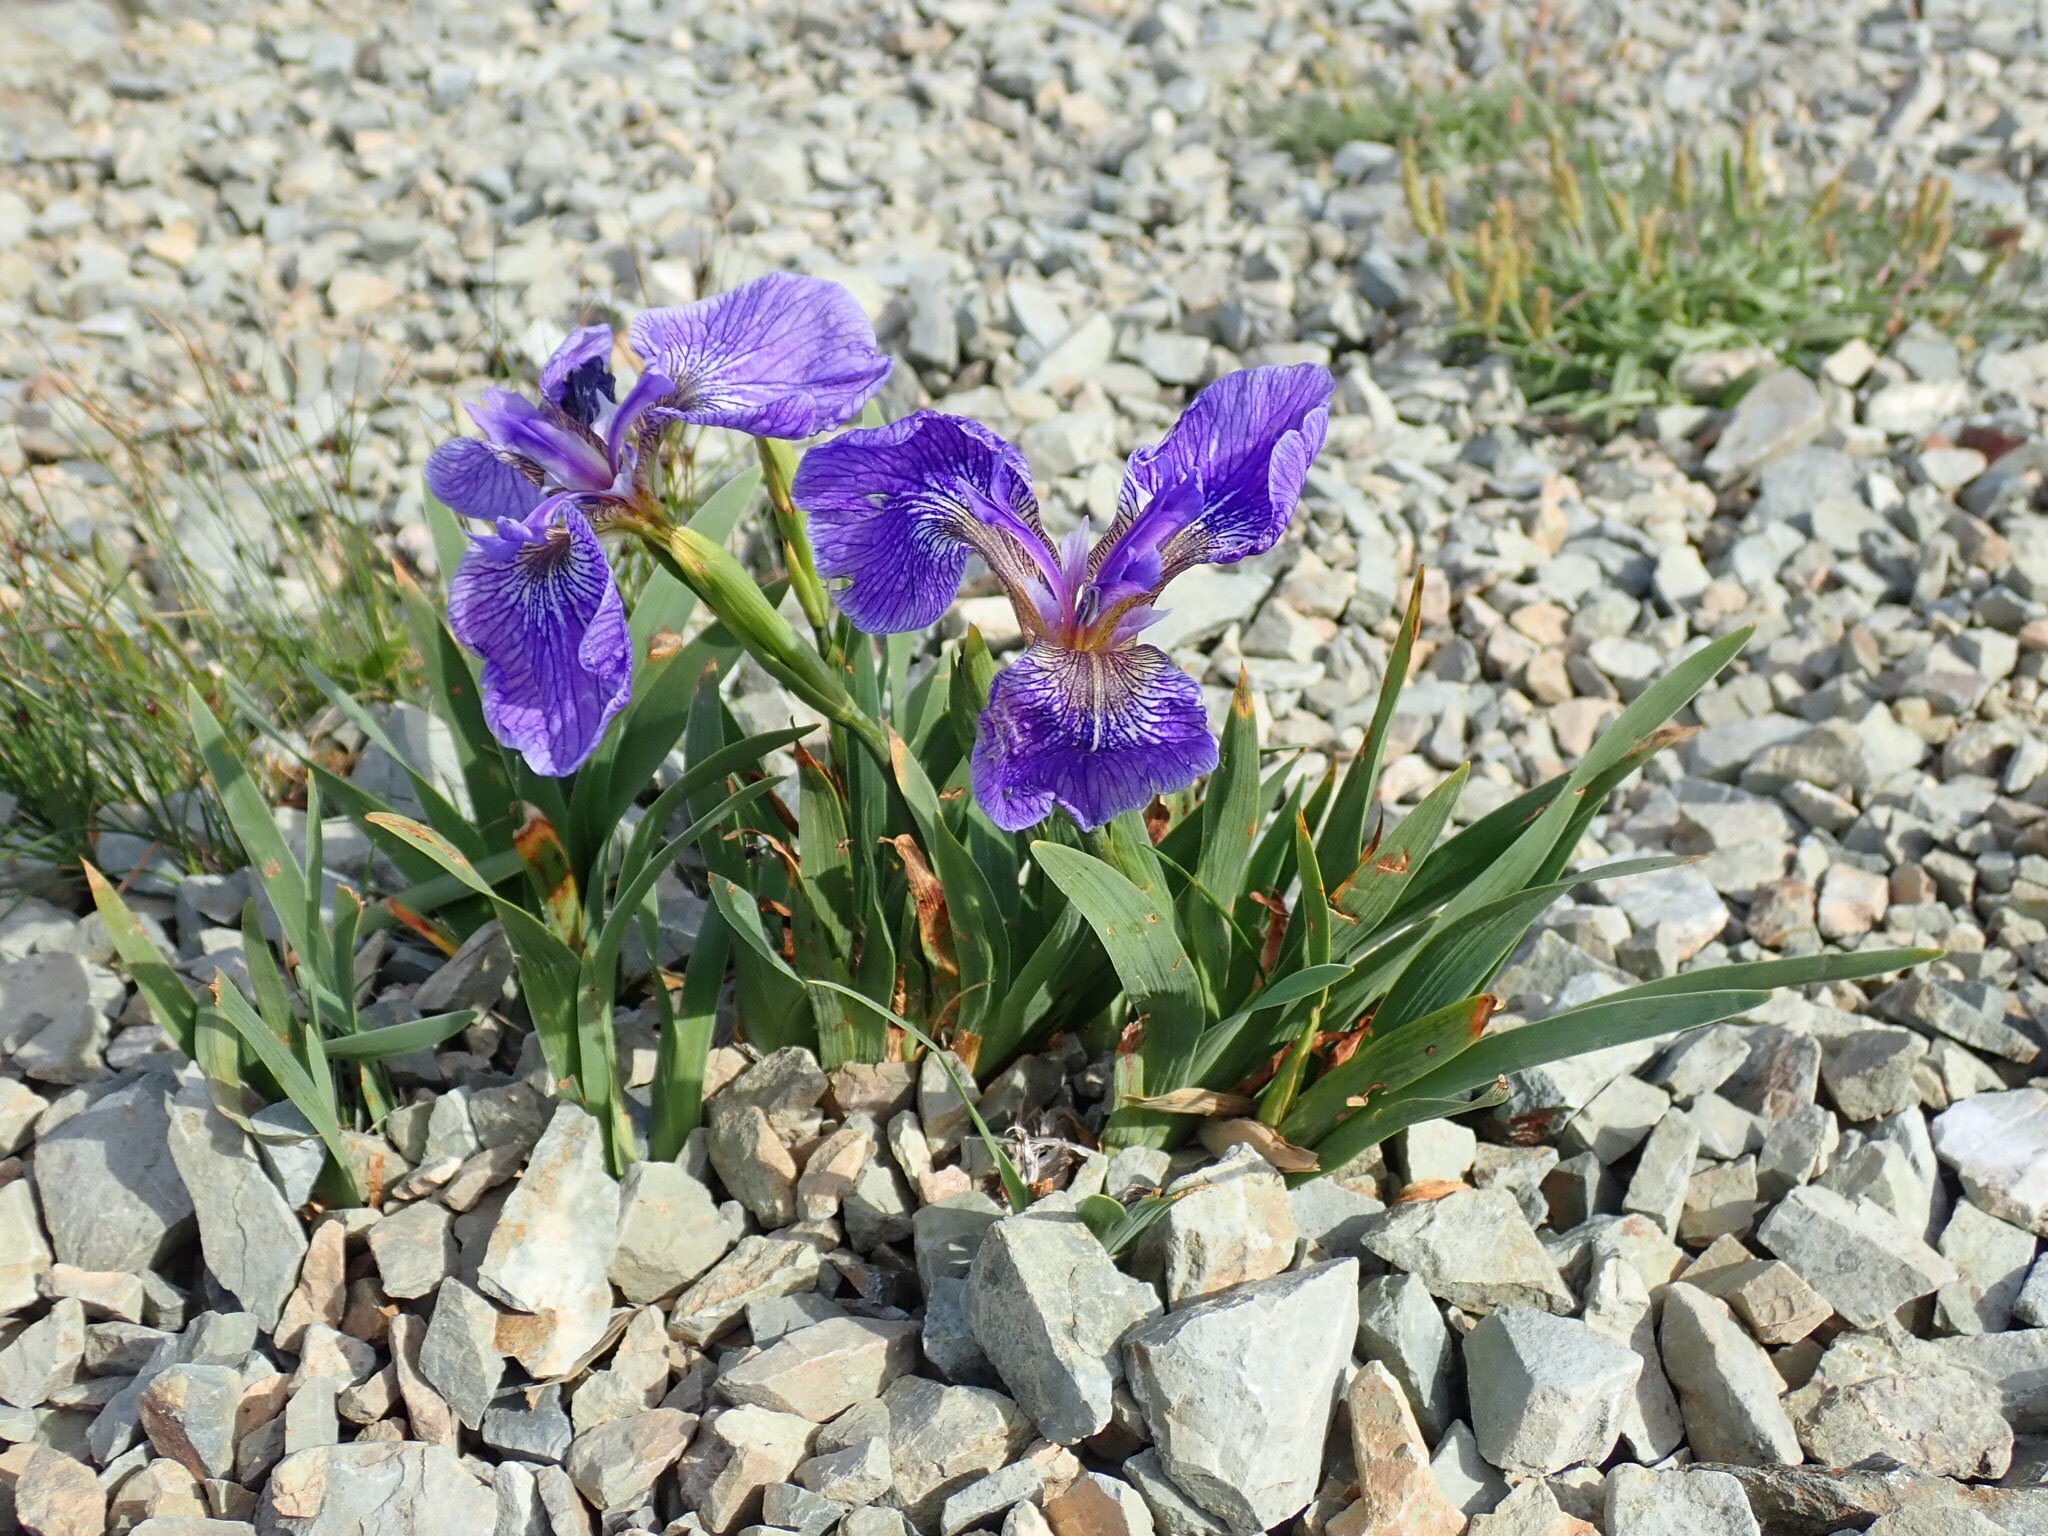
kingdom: Plantae
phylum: Tracheophyta
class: Liliopsida
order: Asparagales
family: Iridaceae
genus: Iris
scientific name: Iris hookeri
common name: Canada beach-head iris
